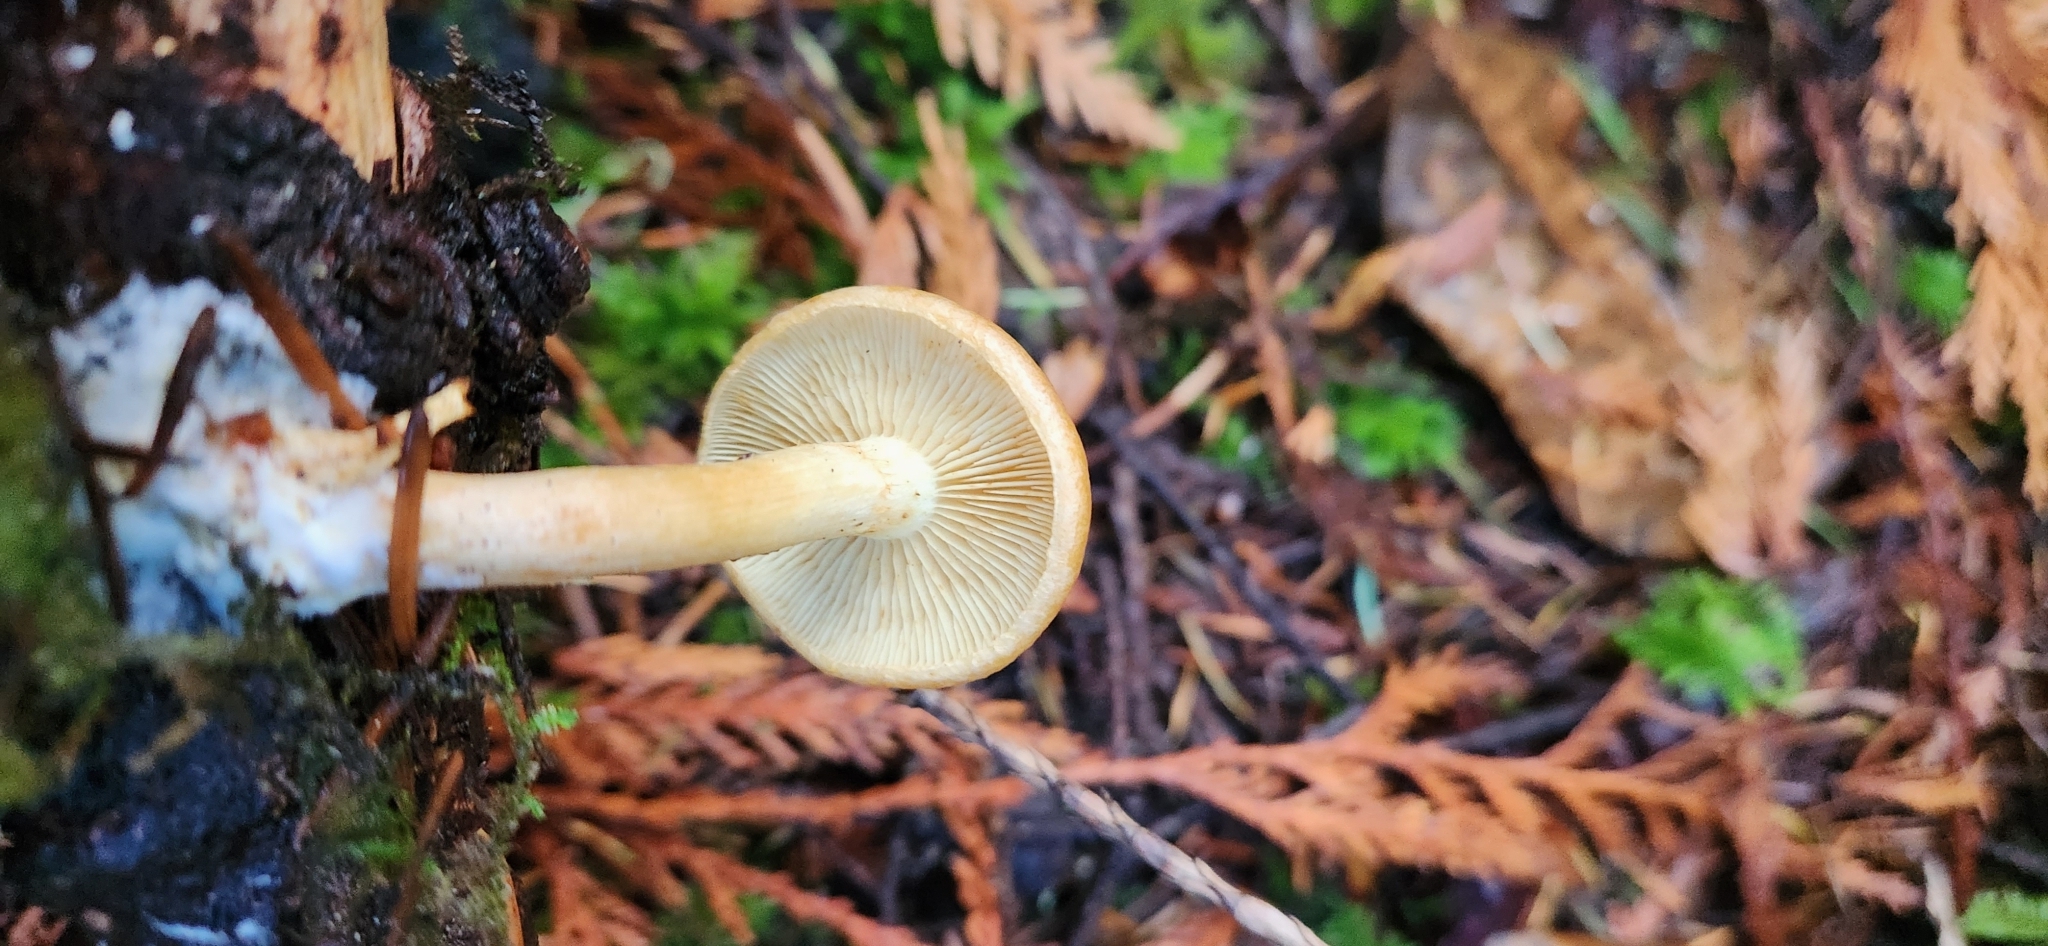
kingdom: Fungi
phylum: Basidiomycota
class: Agaricomycetes
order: Agaricales
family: Strophariaceae
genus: Hypholoma
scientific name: Hypholoma capnoides
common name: Conifer tuft
